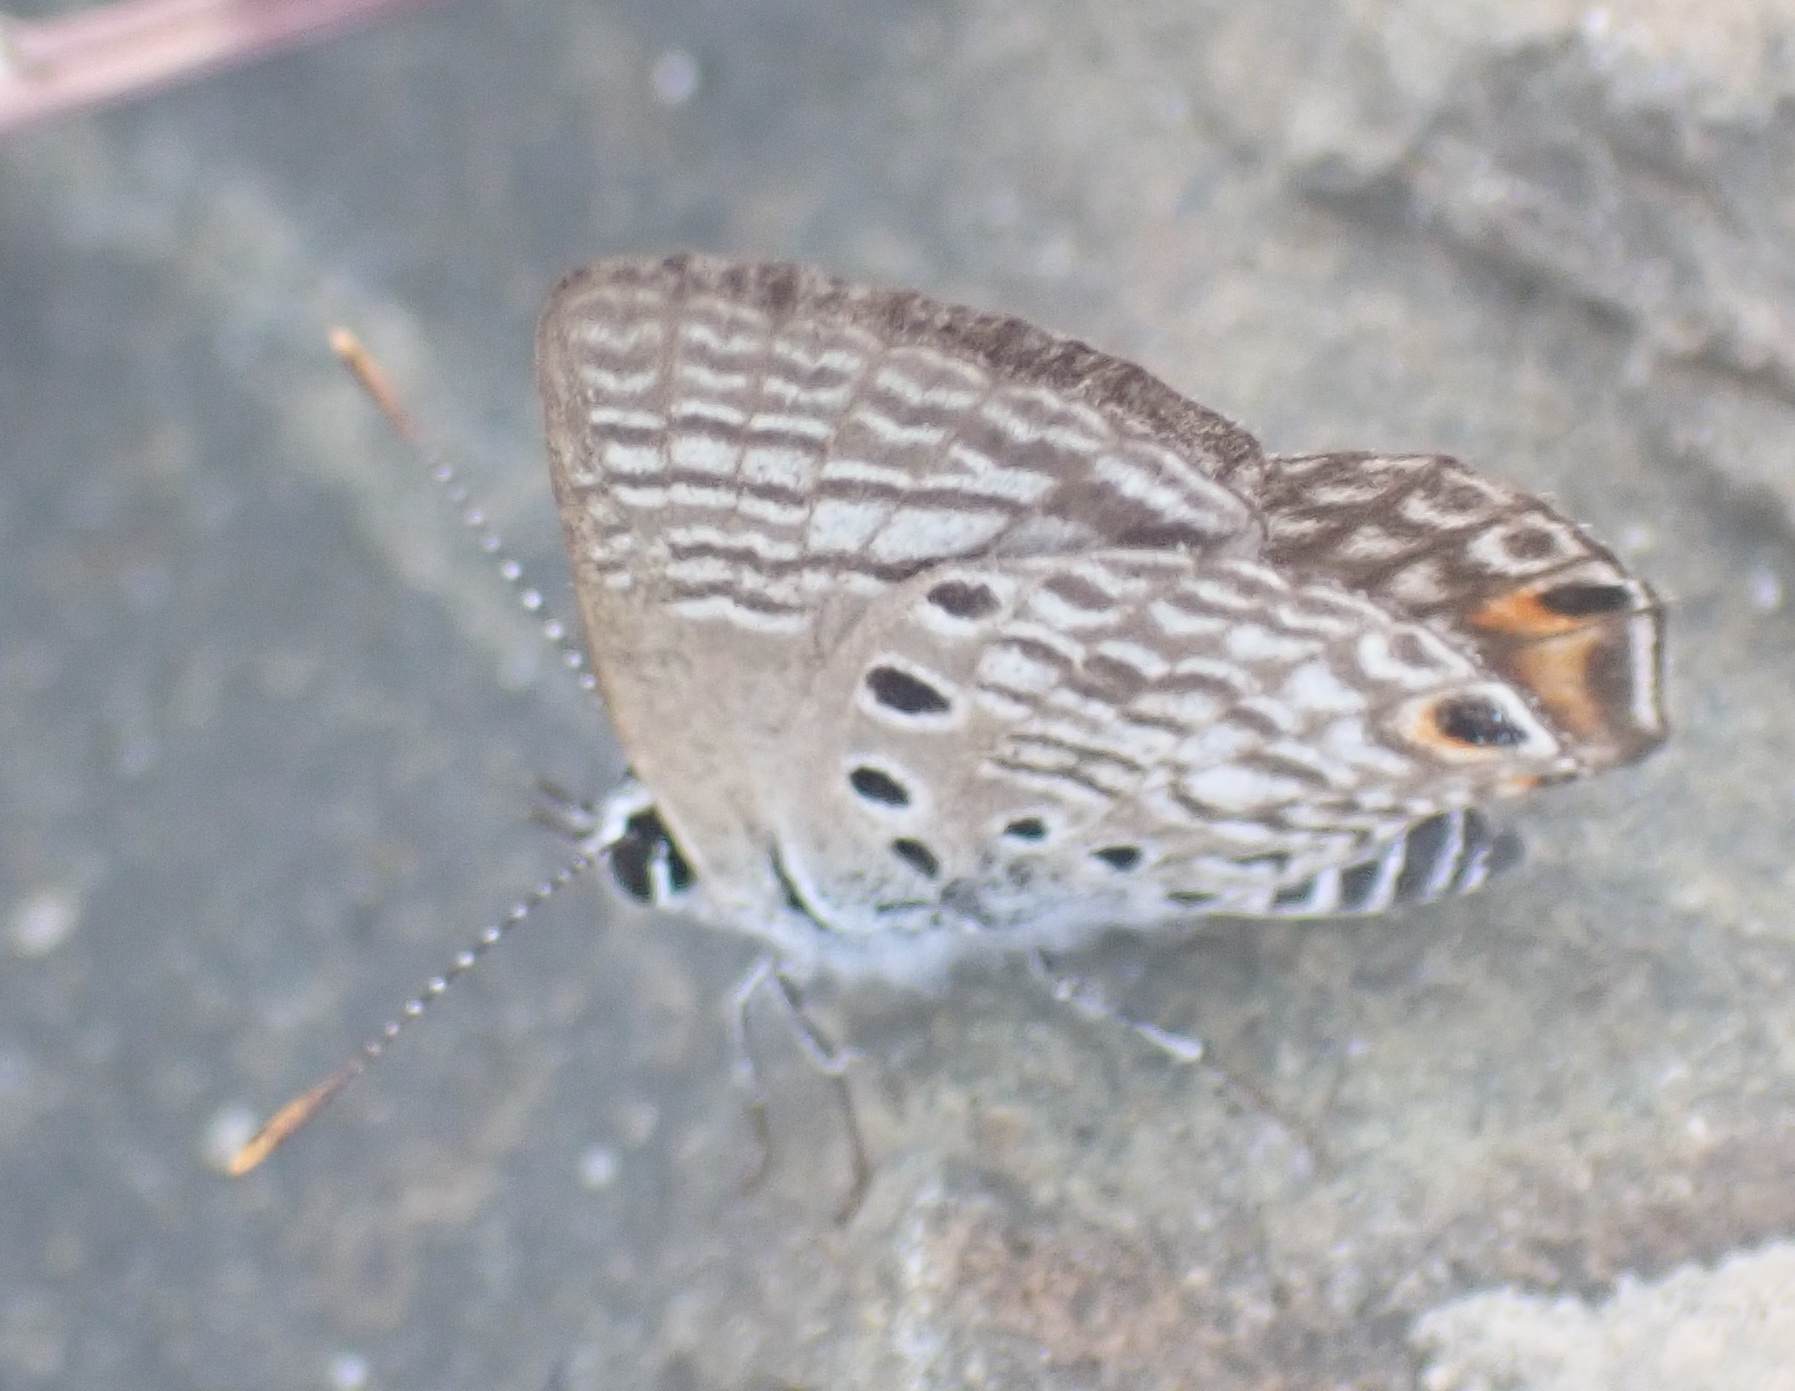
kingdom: Animalia
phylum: Arthropoda
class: Insecta
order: Lepidoptera
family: Lycaenidae
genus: Anthene
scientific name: Anthene amarah
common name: Black-striped hairtail
